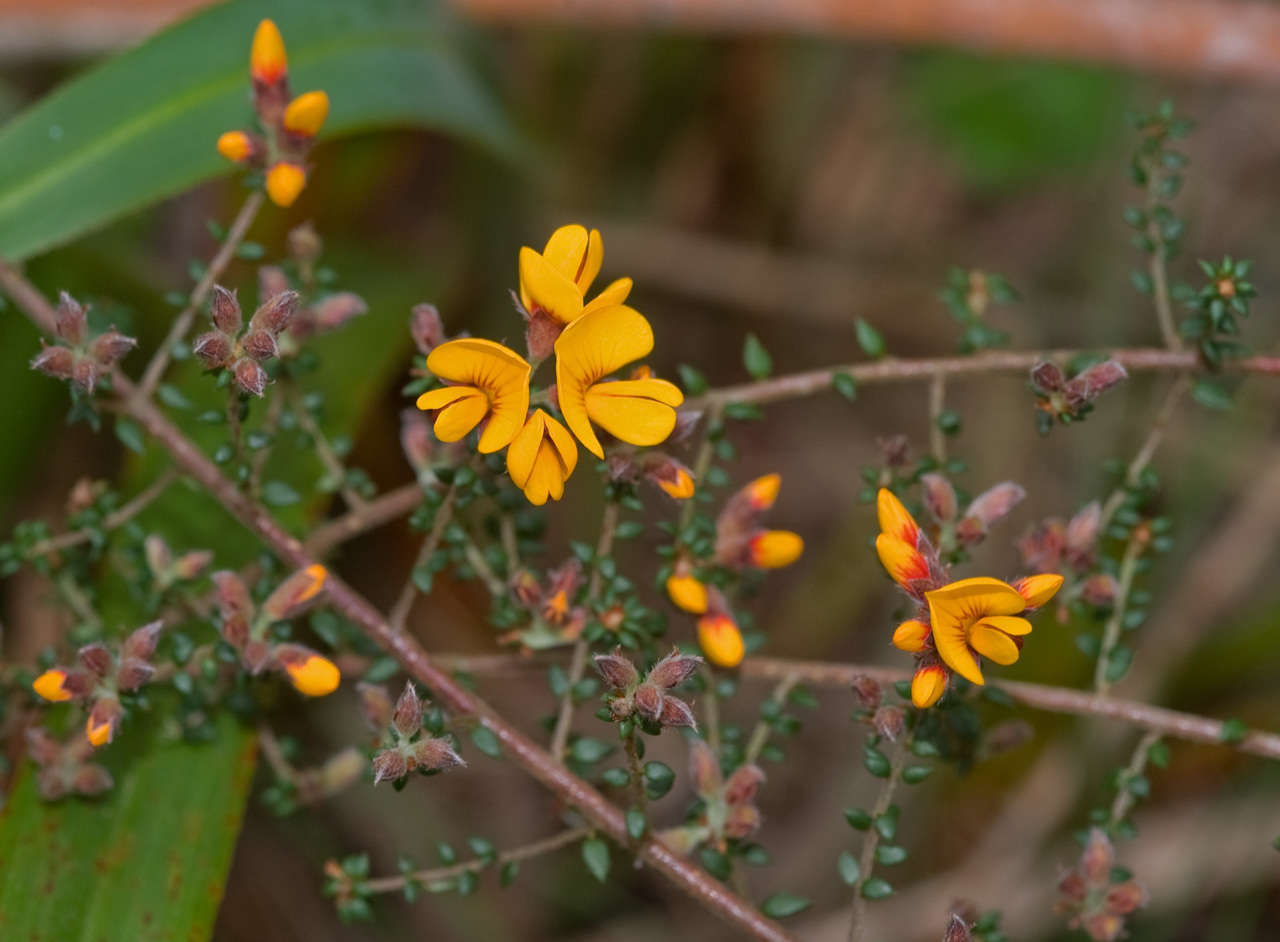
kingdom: Plantae
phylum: Tracheophyta
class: Magnoliopsida
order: Fabales
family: Fabaceae
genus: Pultenaea
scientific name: Pultenaea gunnii
